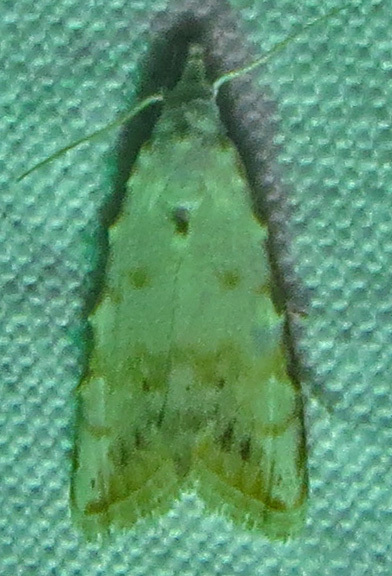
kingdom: Animalia
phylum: Arthropoda
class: Insecta
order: Lepidoptera
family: Nolidae
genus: Nola
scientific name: Nola cereella
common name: Sorghum webworm moth
